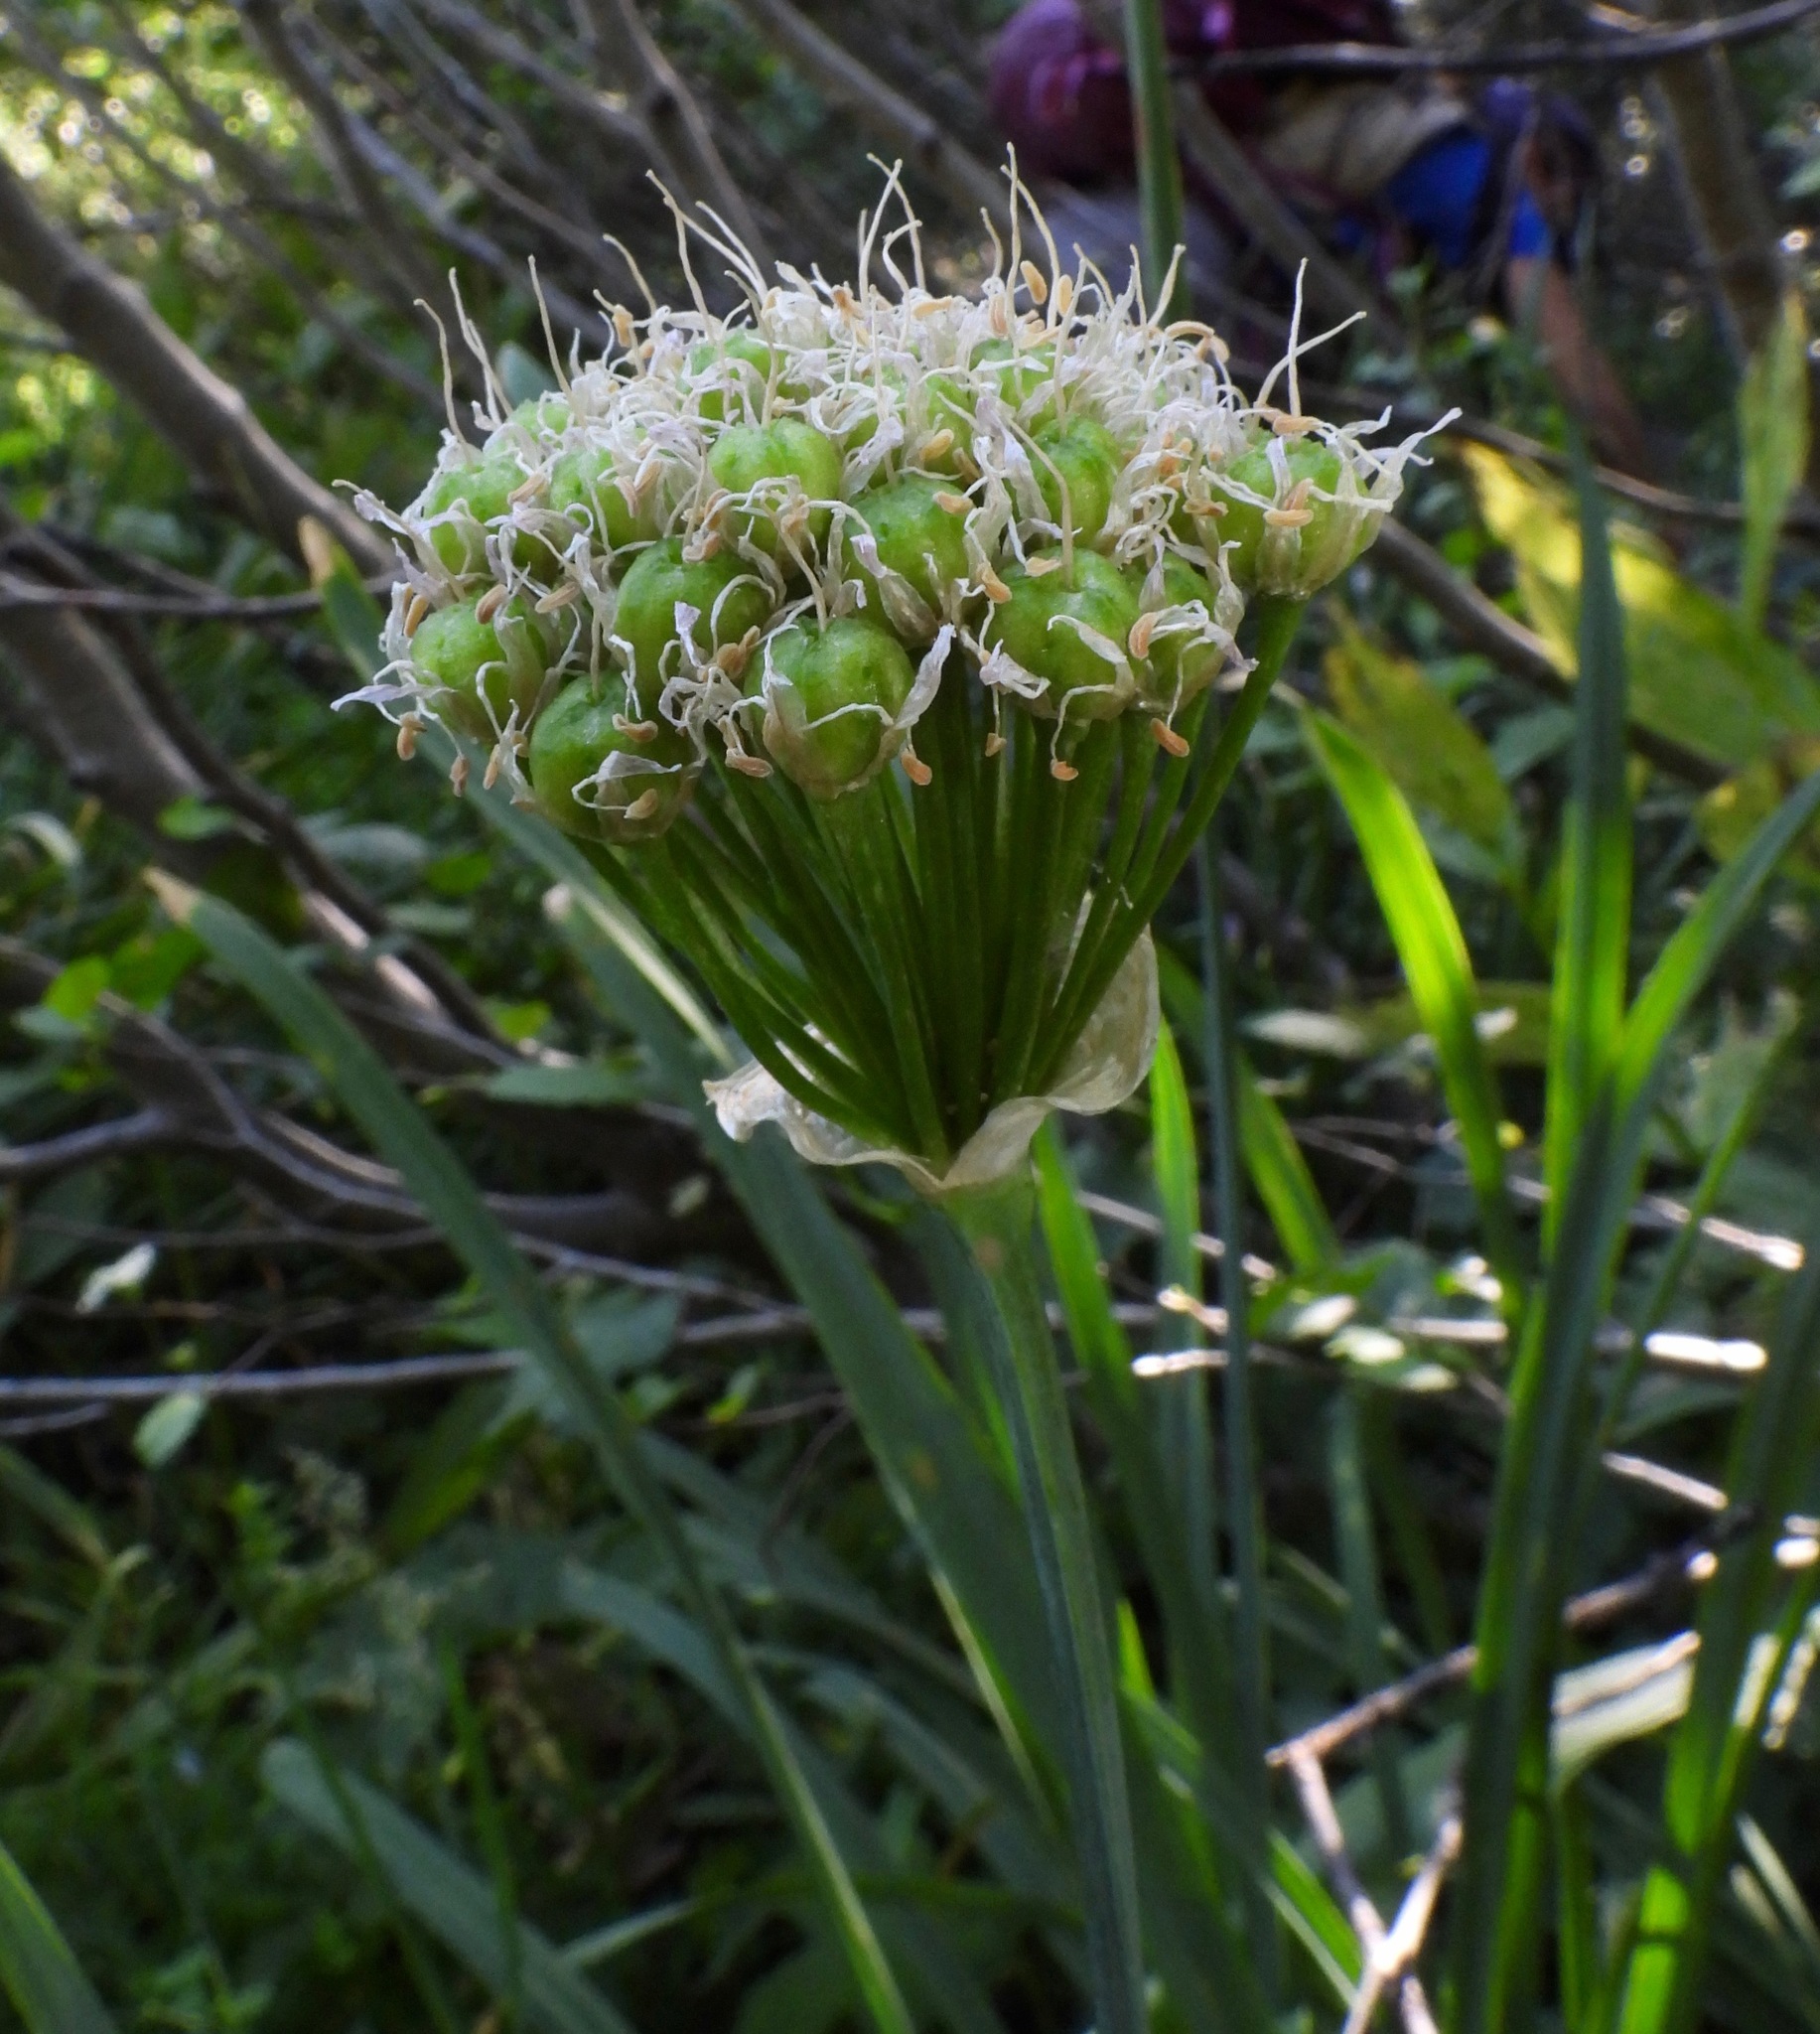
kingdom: Plantae
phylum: Tracheophyta
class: Liliopsida
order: Asparagales
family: Amaryllidaceae
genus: Allium
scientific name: Allium validum
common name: Pacific mountain onion
